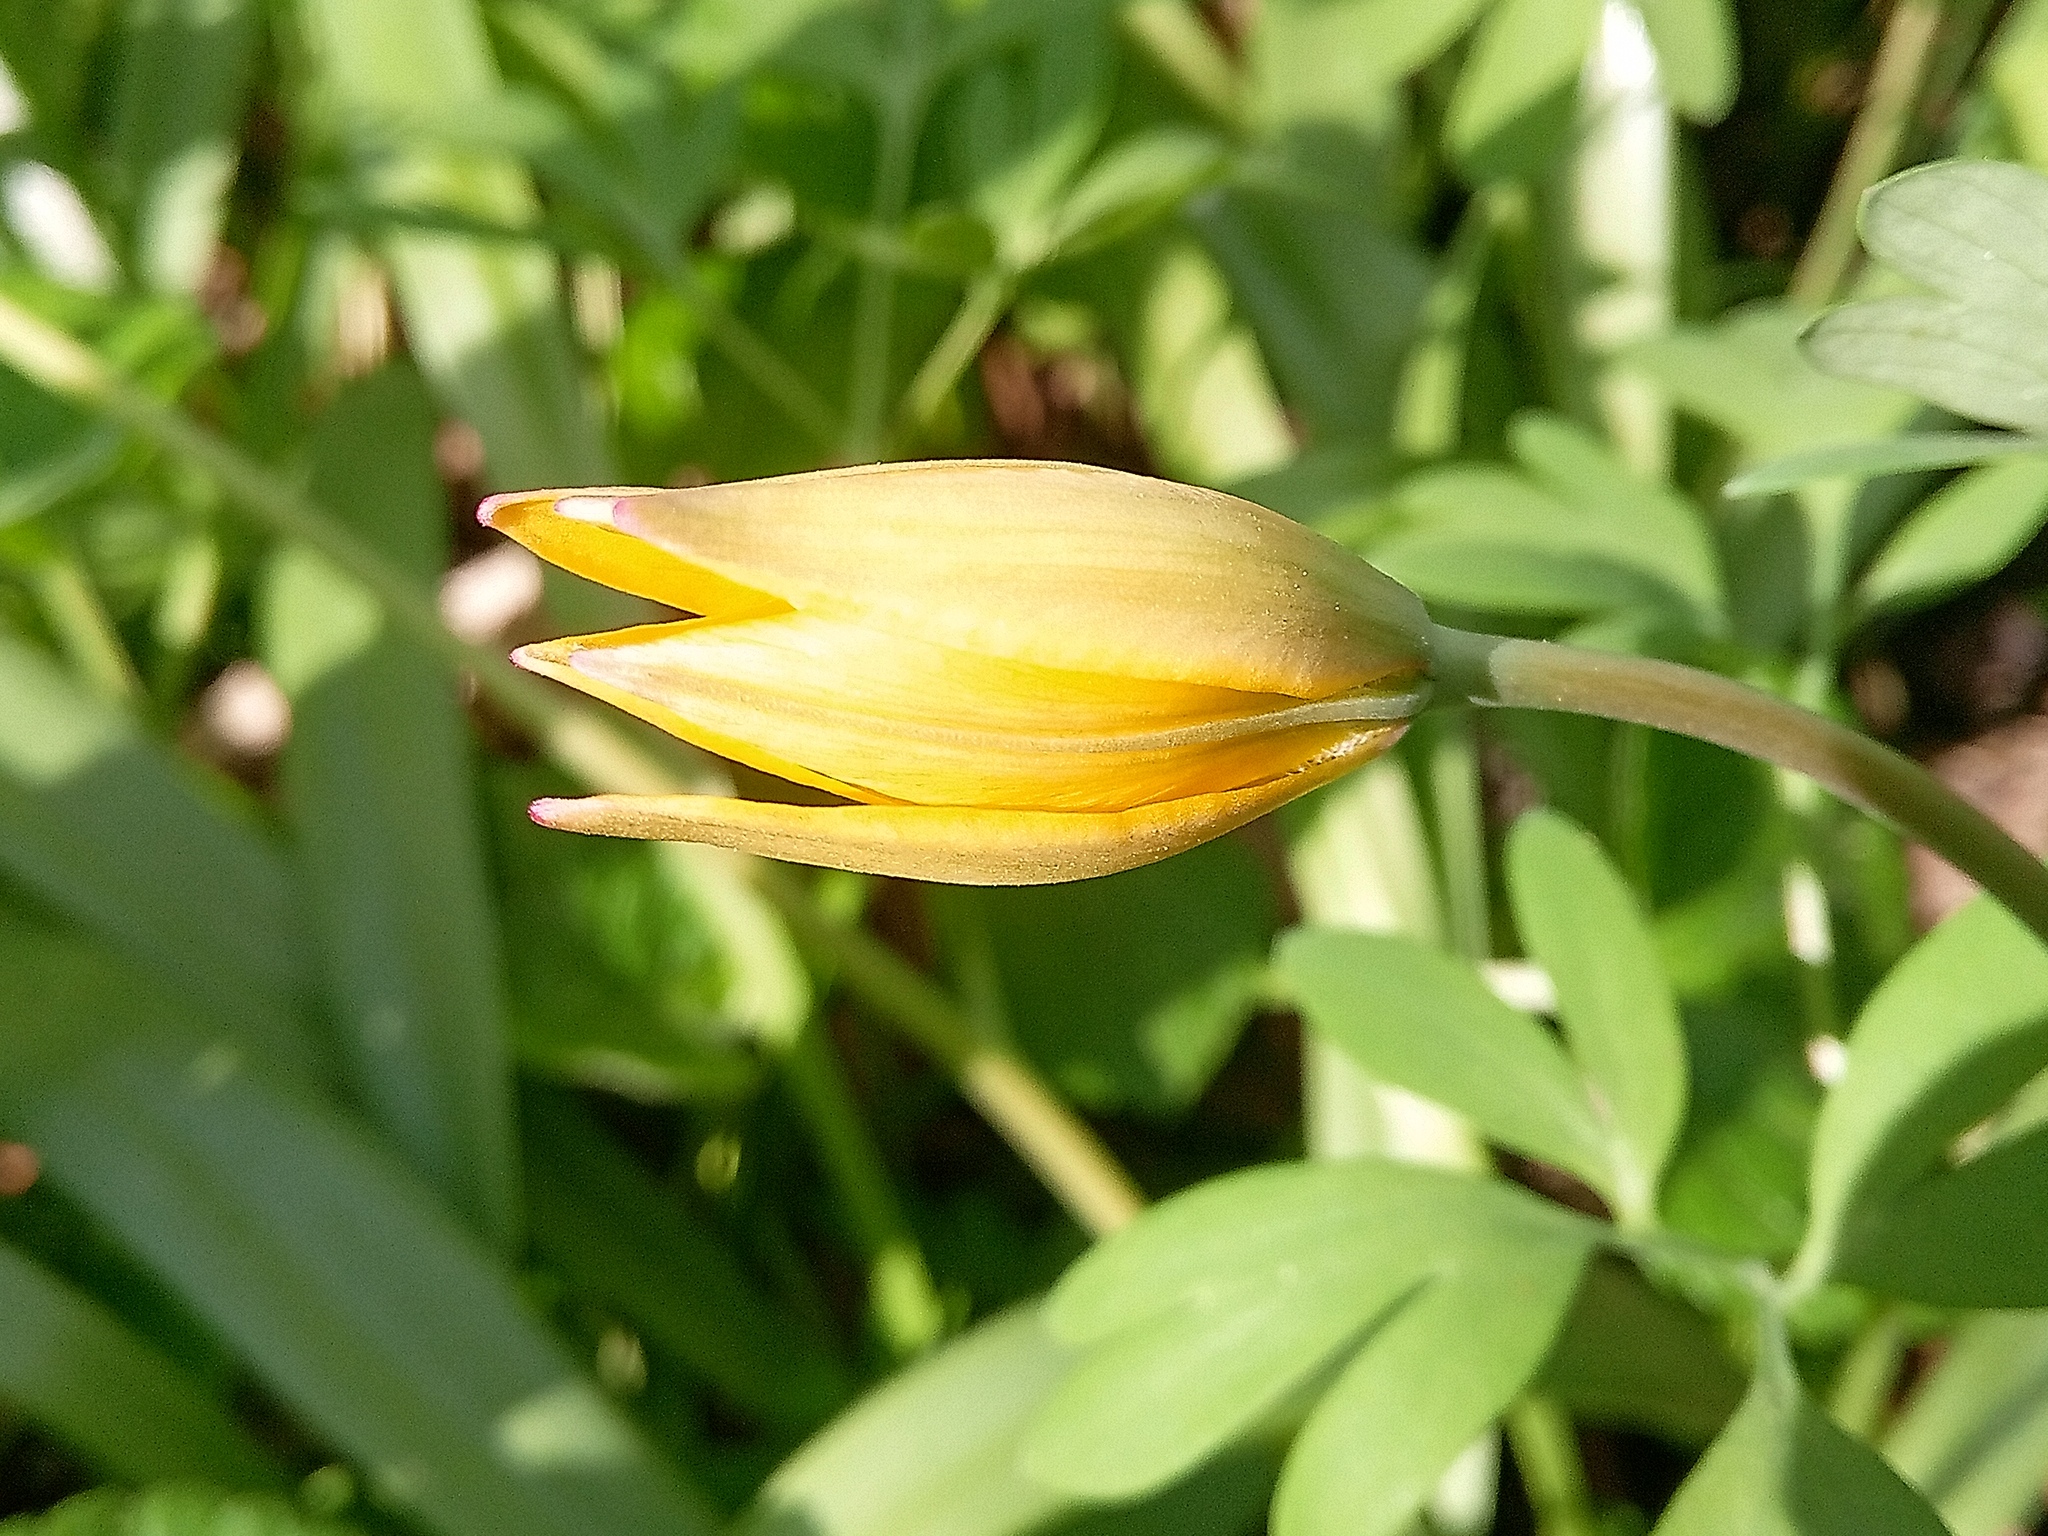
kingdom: Plantae
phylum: Tracheophyta
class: Liliopsida
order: Liliales
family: Liliaceae
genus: Tulipa
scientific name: Tulipa sylvestris
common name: Wild tulip
